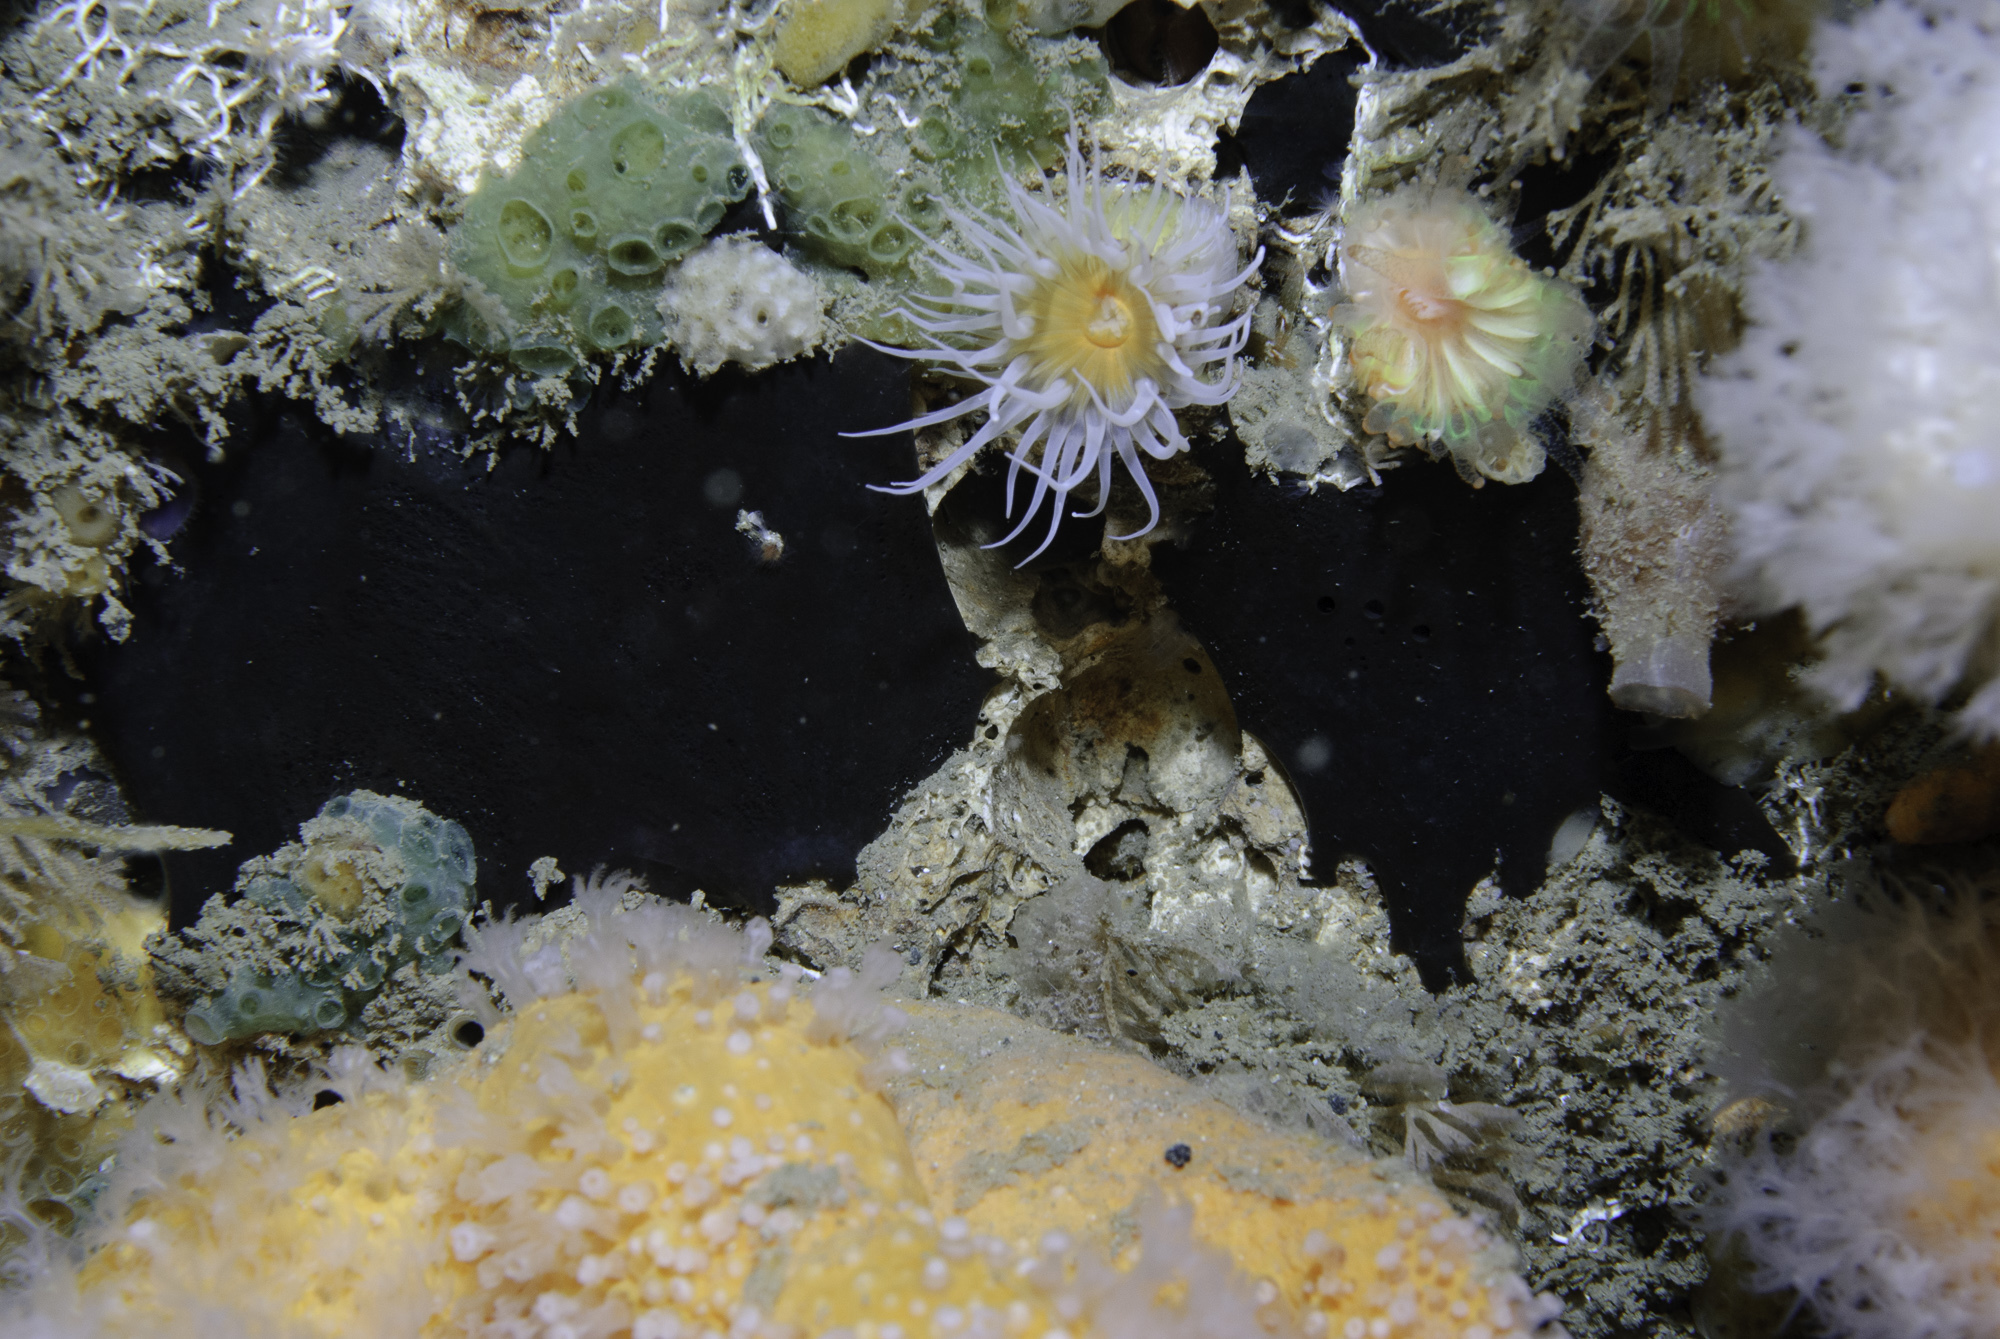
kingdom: Animalia
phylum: Porifera
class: Demospongiae
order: Tetractinellida
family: Ancorinidae
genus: Dercitus
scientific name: Dercitus bucklandi
